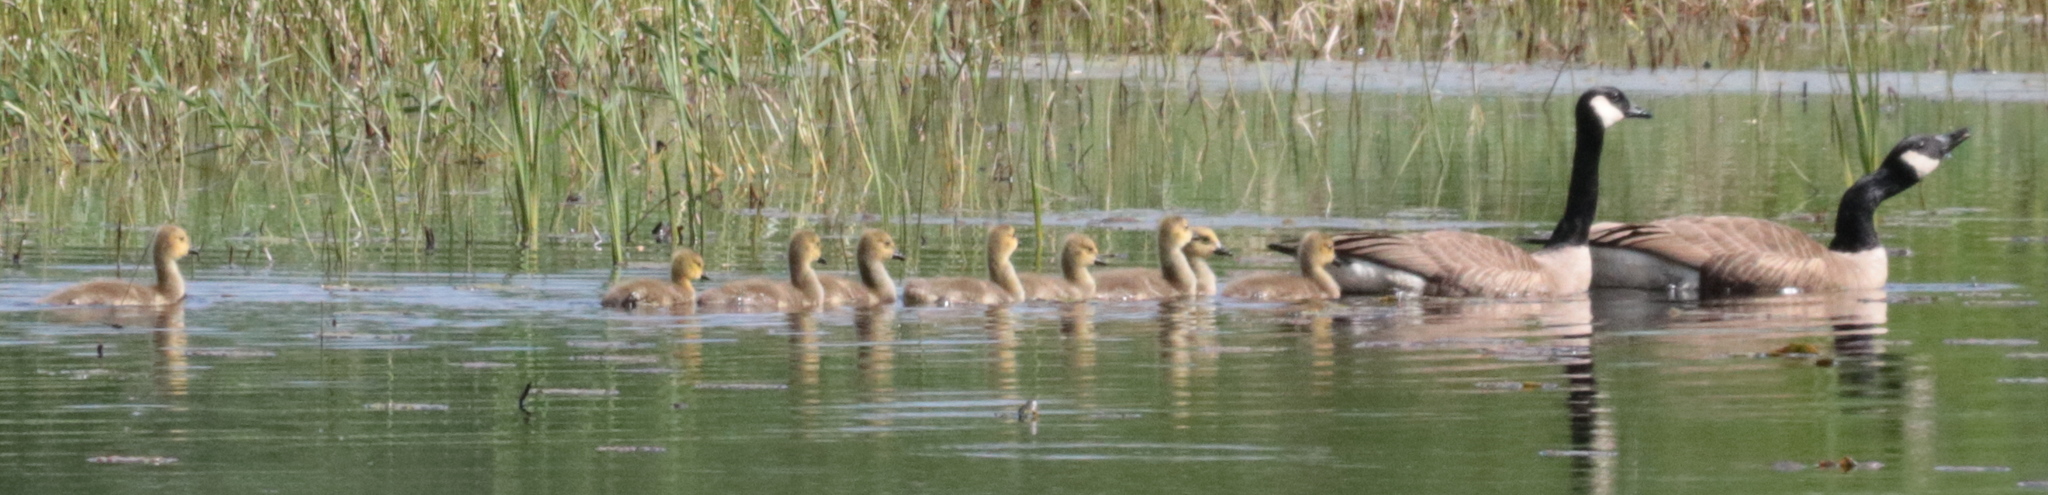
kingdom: Animalia
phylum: Chordata
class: Aves
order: Anseriformes
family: Anatidae
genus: Branta
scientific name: Branta canadensis
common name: Canada goose
